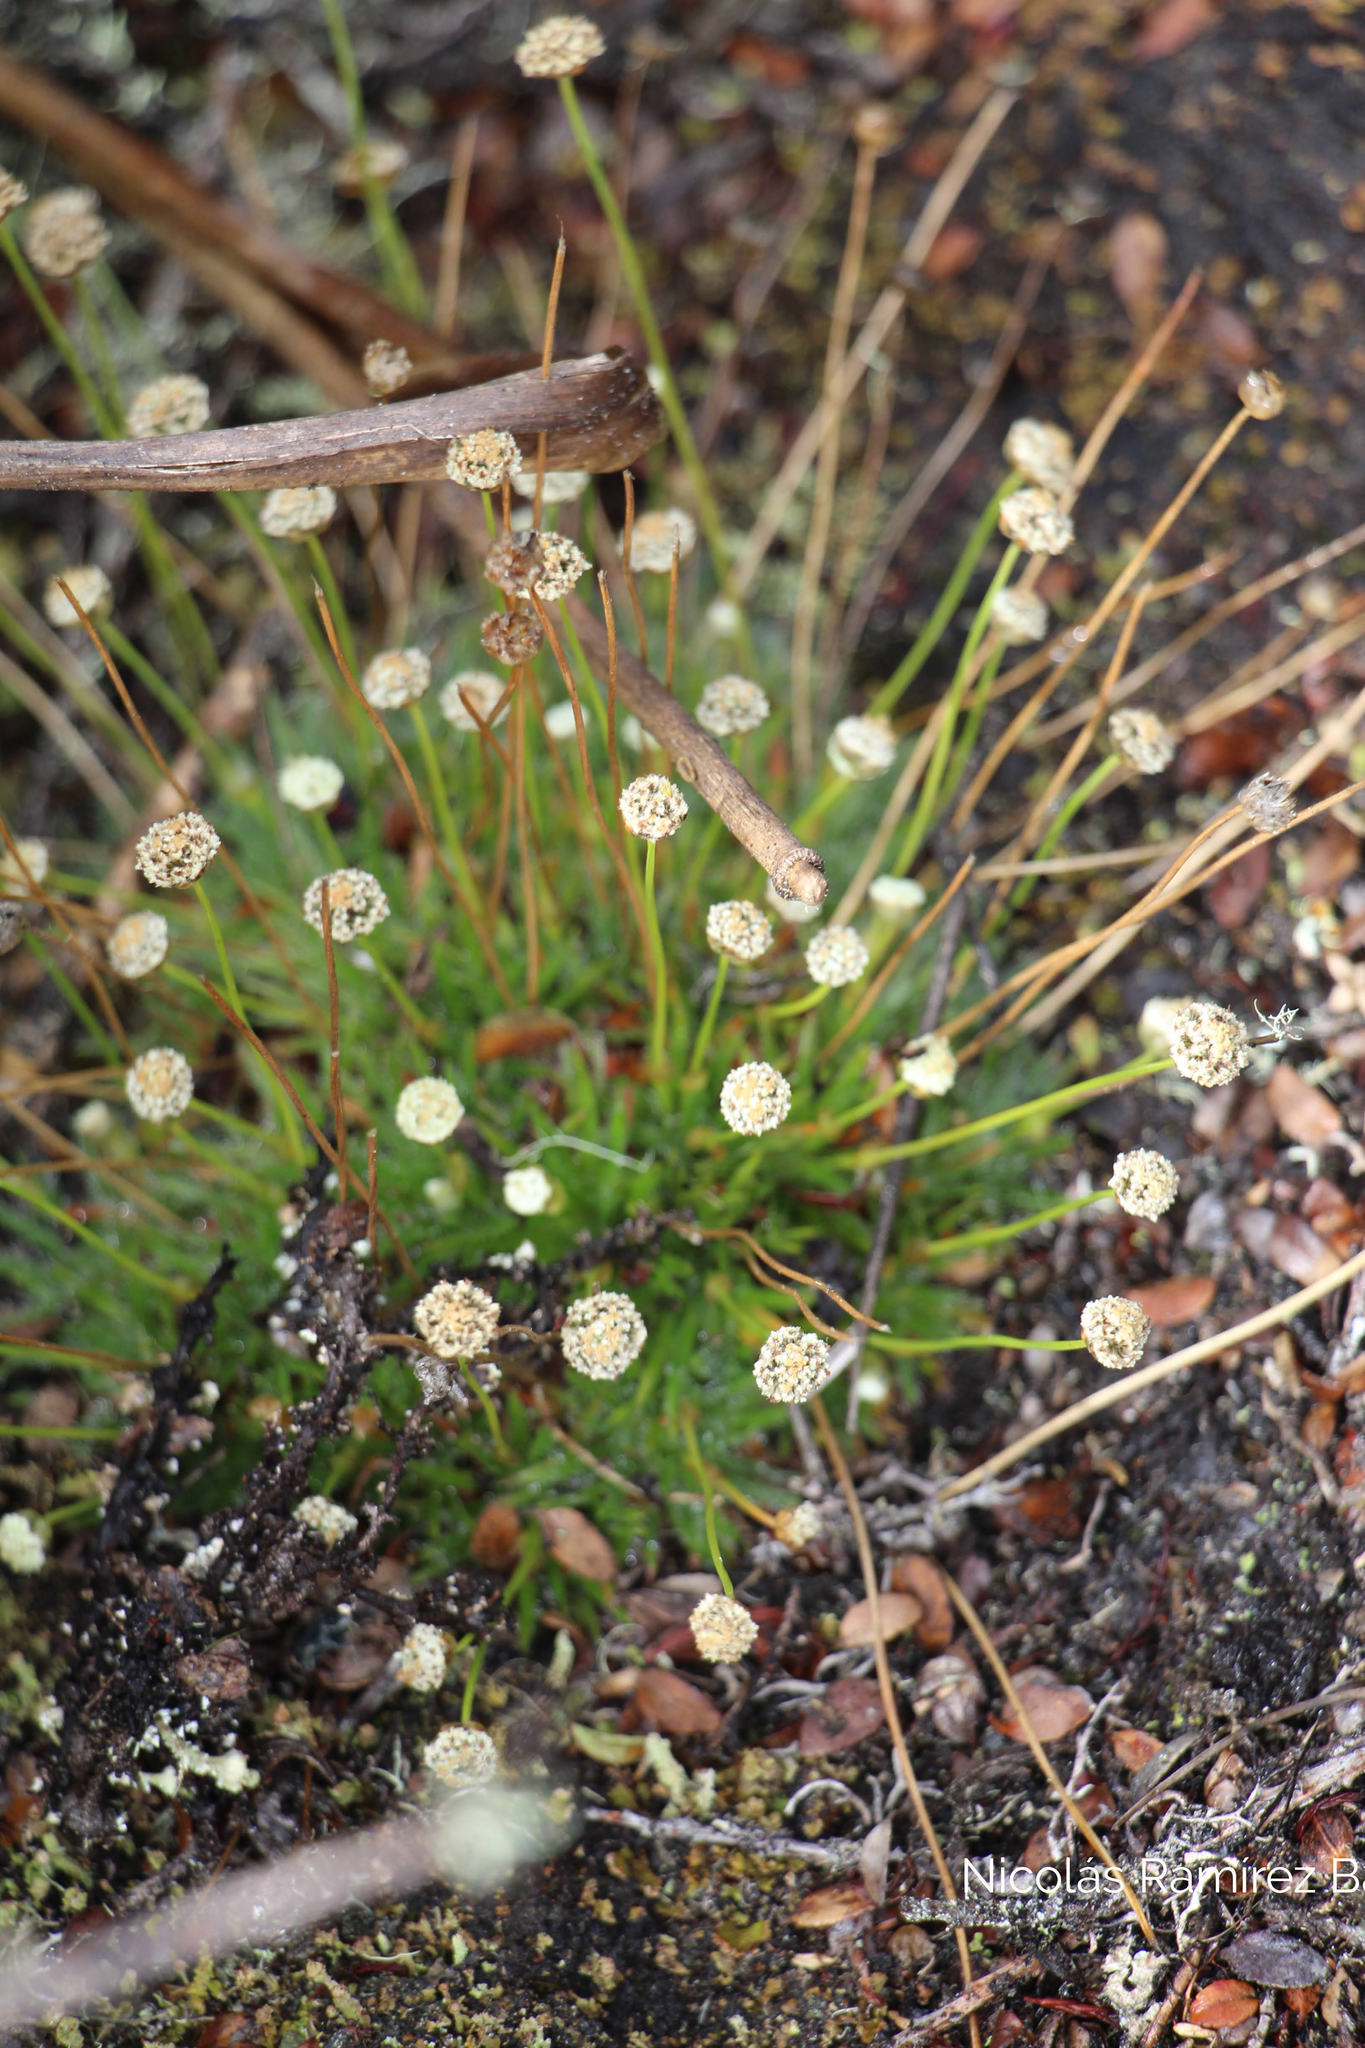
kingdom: Plantae
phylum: Tracheophyta
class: Liliopsida
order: Poales
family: Eriocaulaceae
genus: Paepalanthus
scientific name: Paepalanthus dendroides
